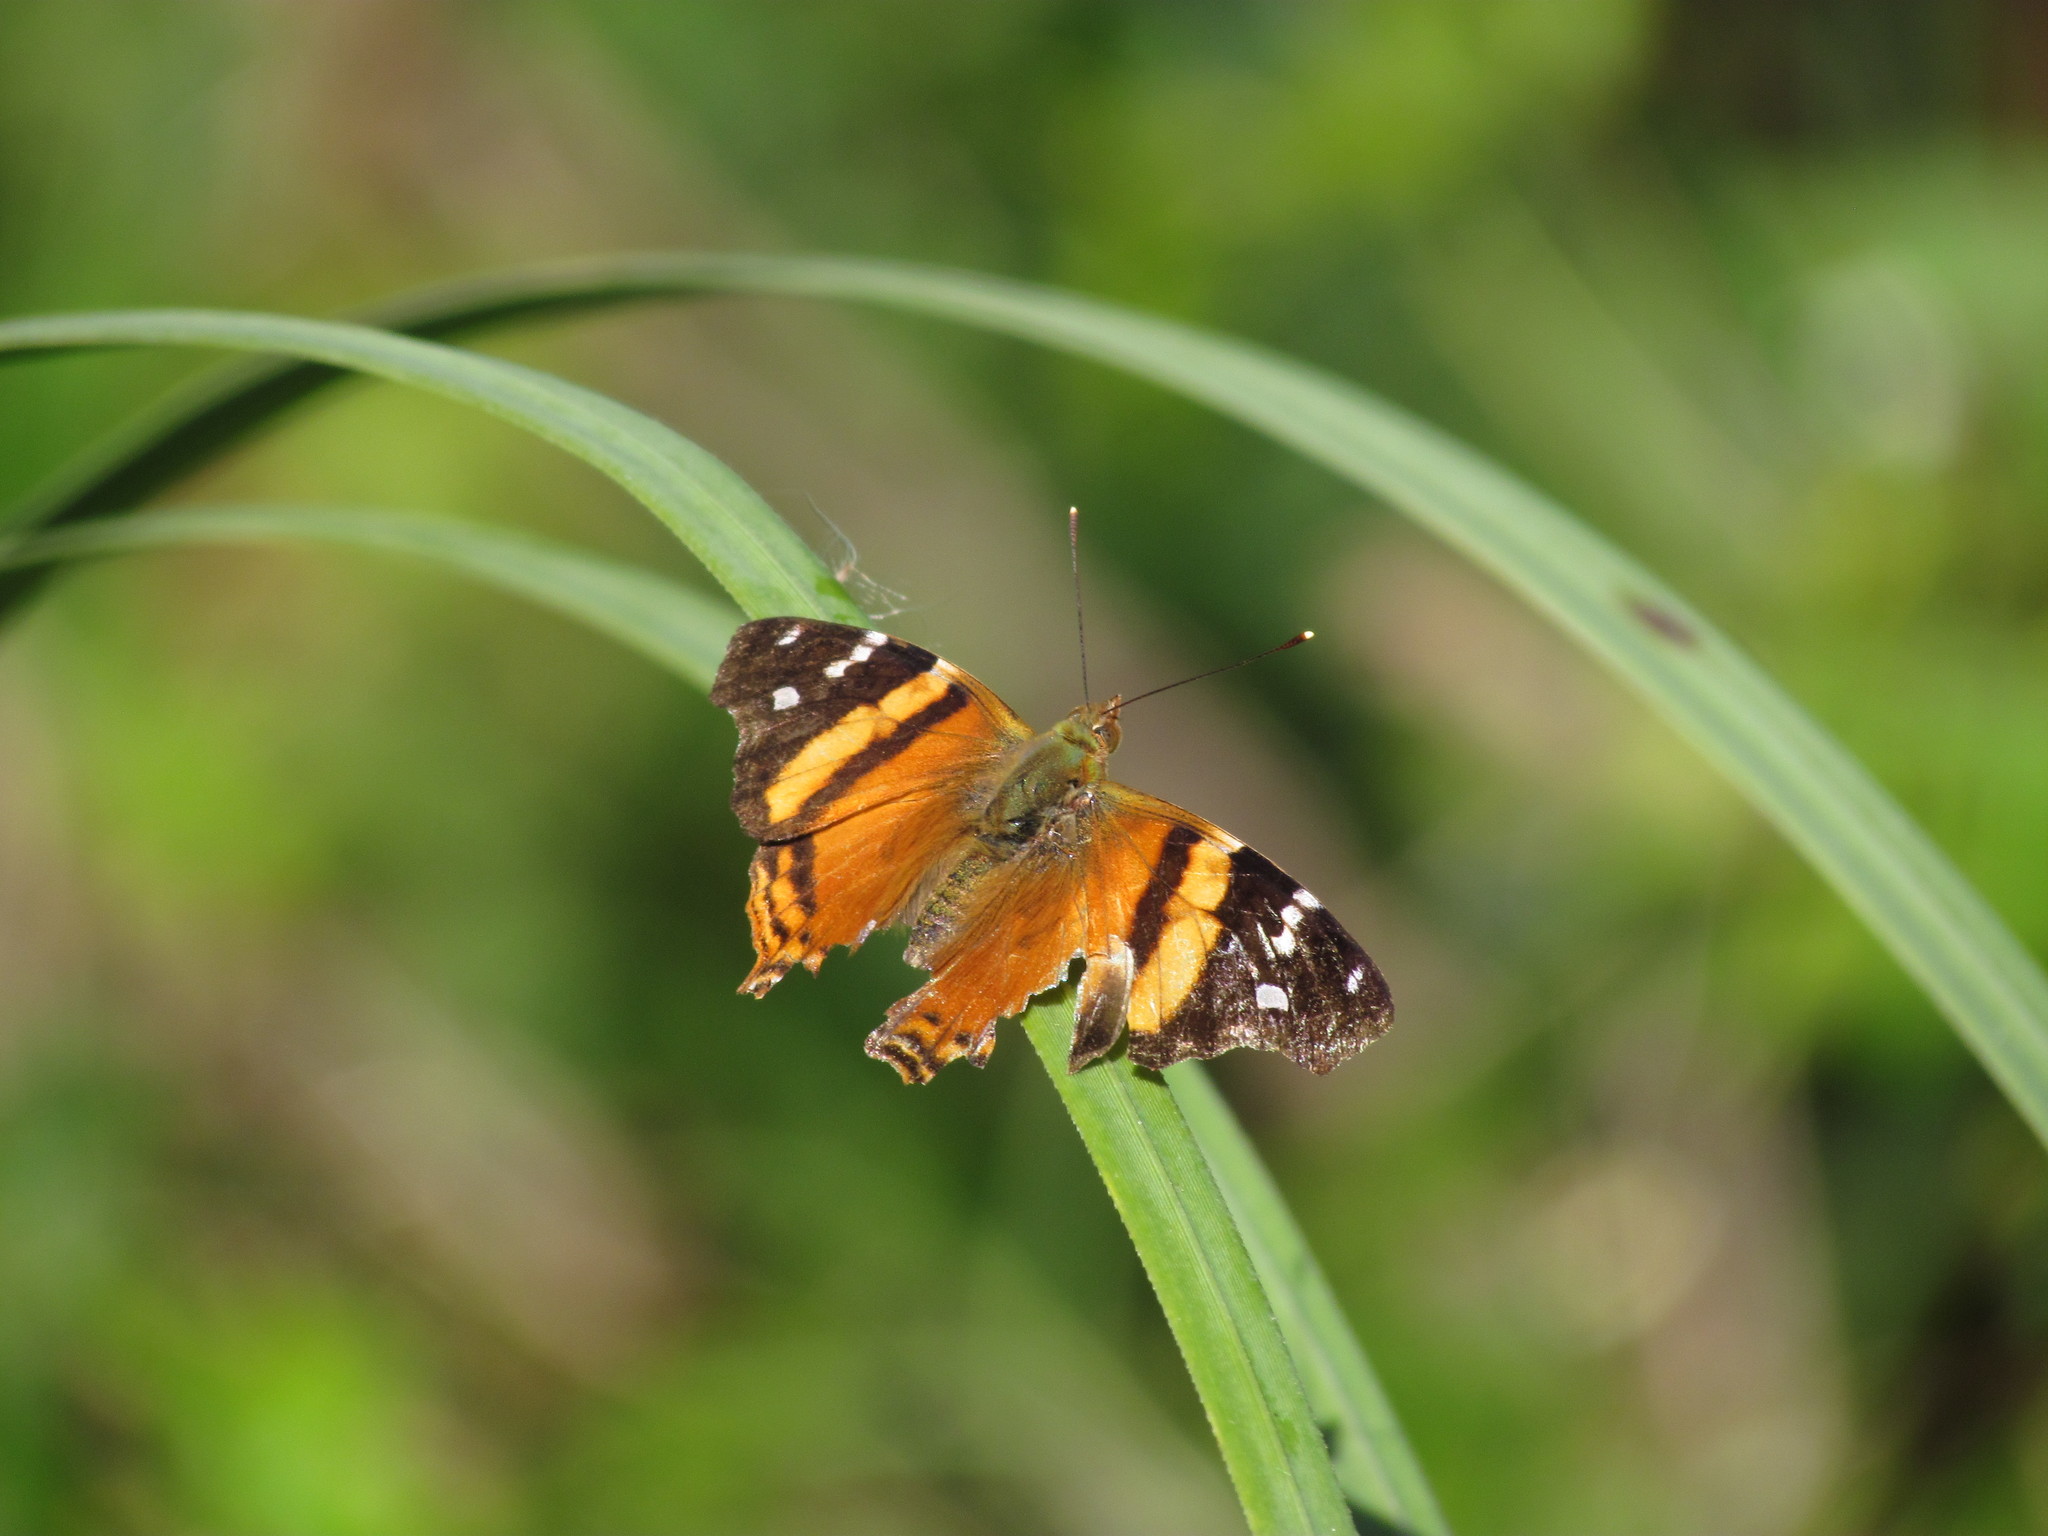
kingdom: Animalia
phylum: Arthropoda
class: Insecta
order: Lepidoptera
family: Nymphalidae
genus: Hypanartia
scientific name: Hypanartia bella
